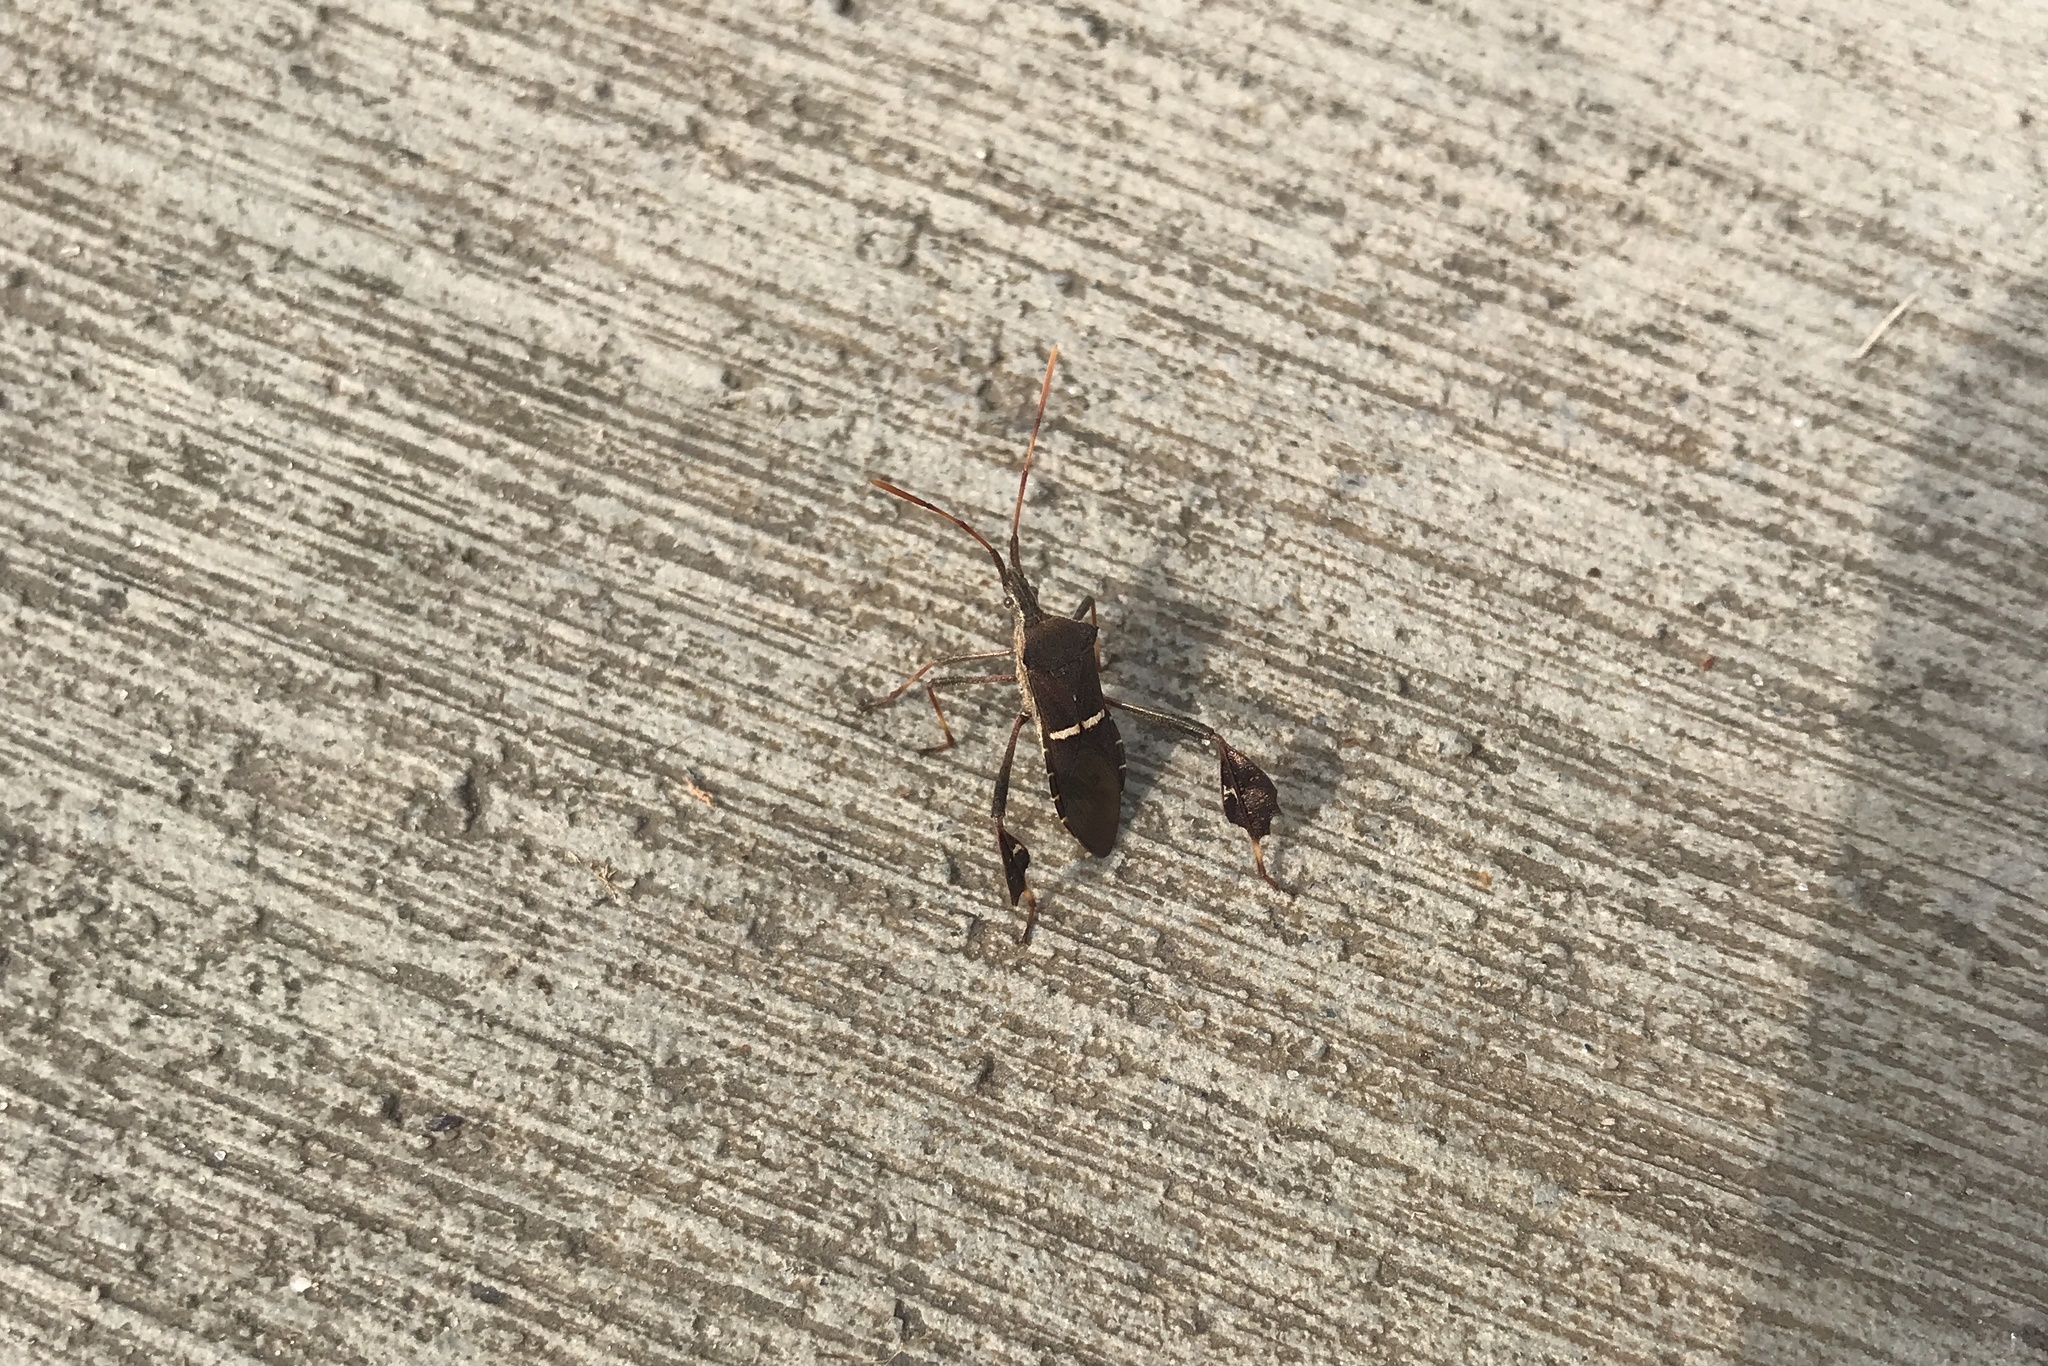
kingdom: Animalia
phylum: Arthropoda
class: Insecta
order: Hemiptera
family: Coreidae
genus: Leptoglossus
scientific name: Leptoglossus phyllopus
